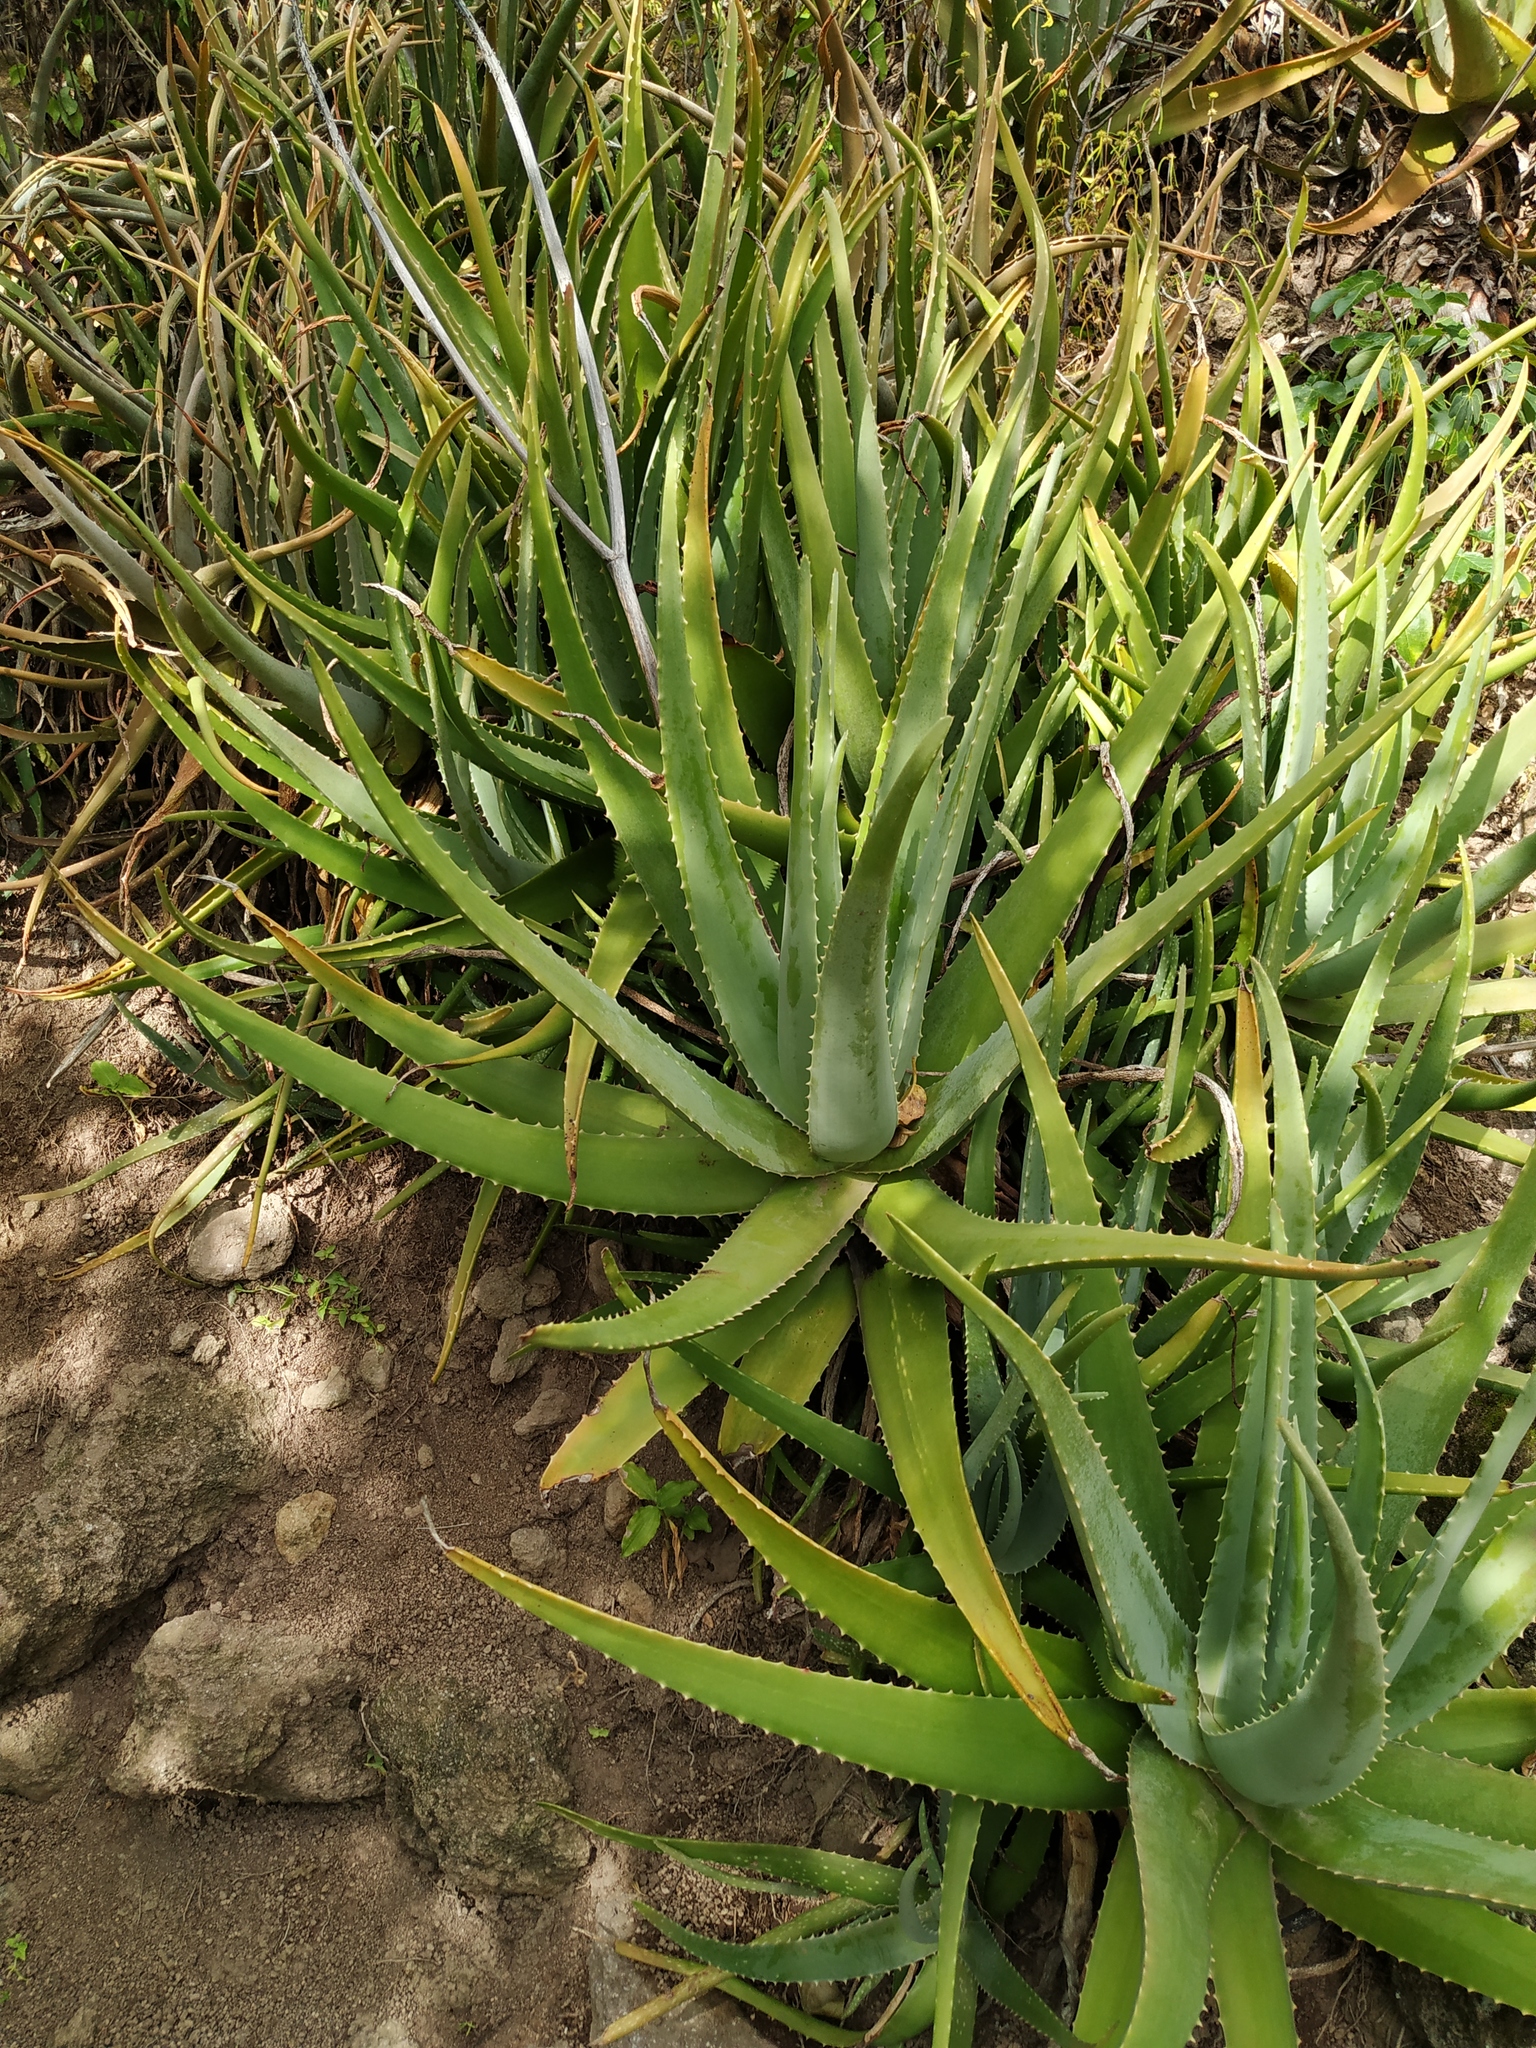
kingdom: Plantae
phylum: Tracheophyta
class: Liliopsida
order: Asparagales
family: Asphodelaceae
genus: Aloe
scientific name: Aloe vera
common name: Barbados aloe
